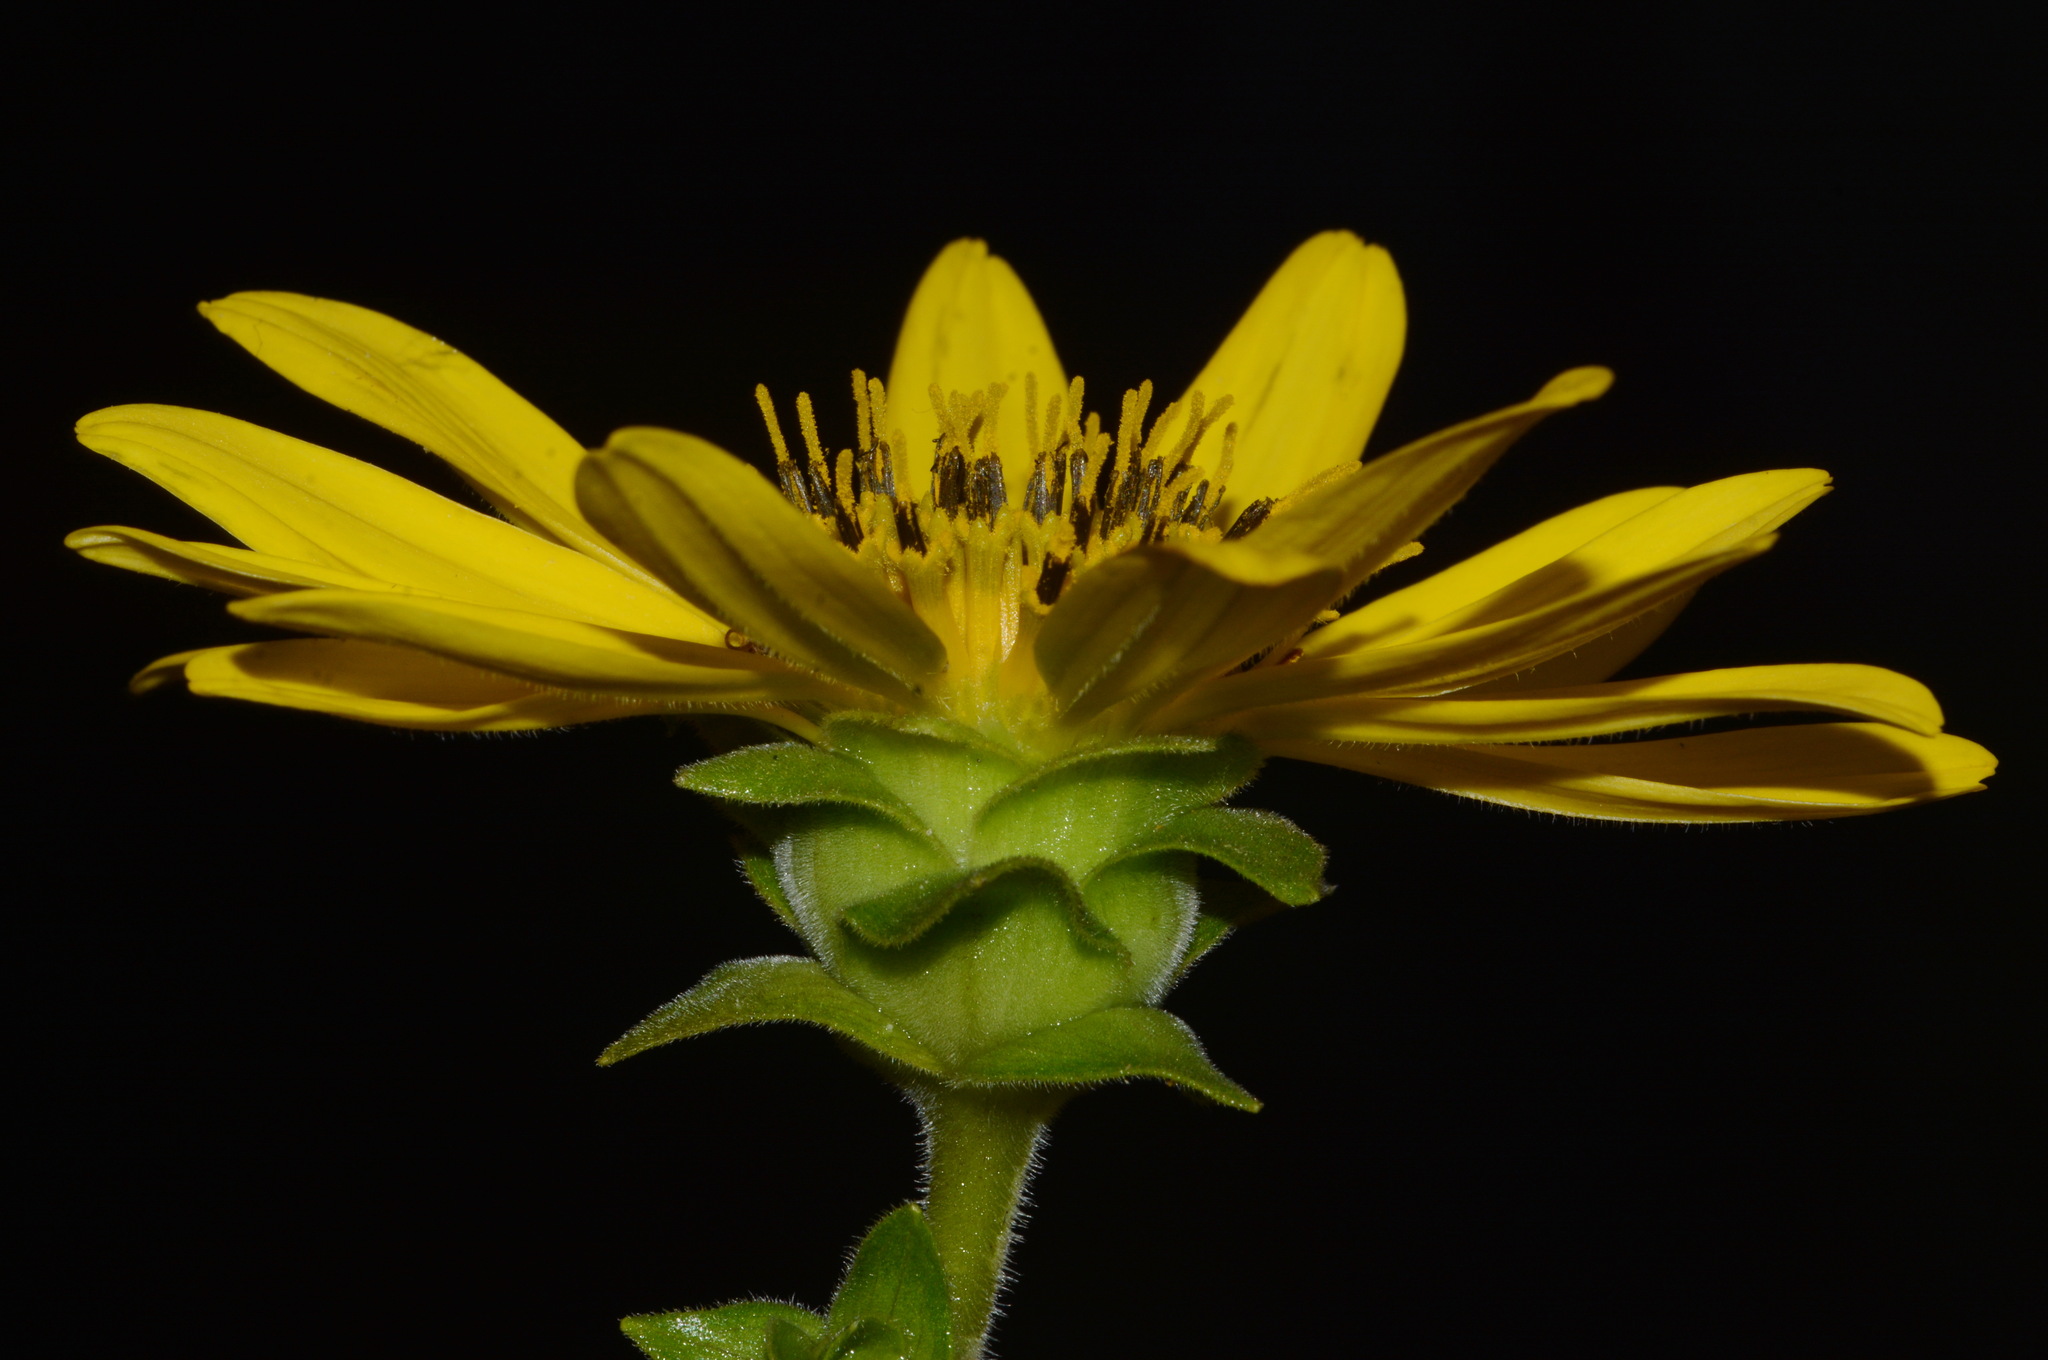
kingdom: Plantae
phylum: Tracheophyta
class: Magnoliopsida
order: Asterales
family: Asteraceae
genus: Silphium
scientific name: Silphium integrifolium
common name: Whole-leaf rosinweed
